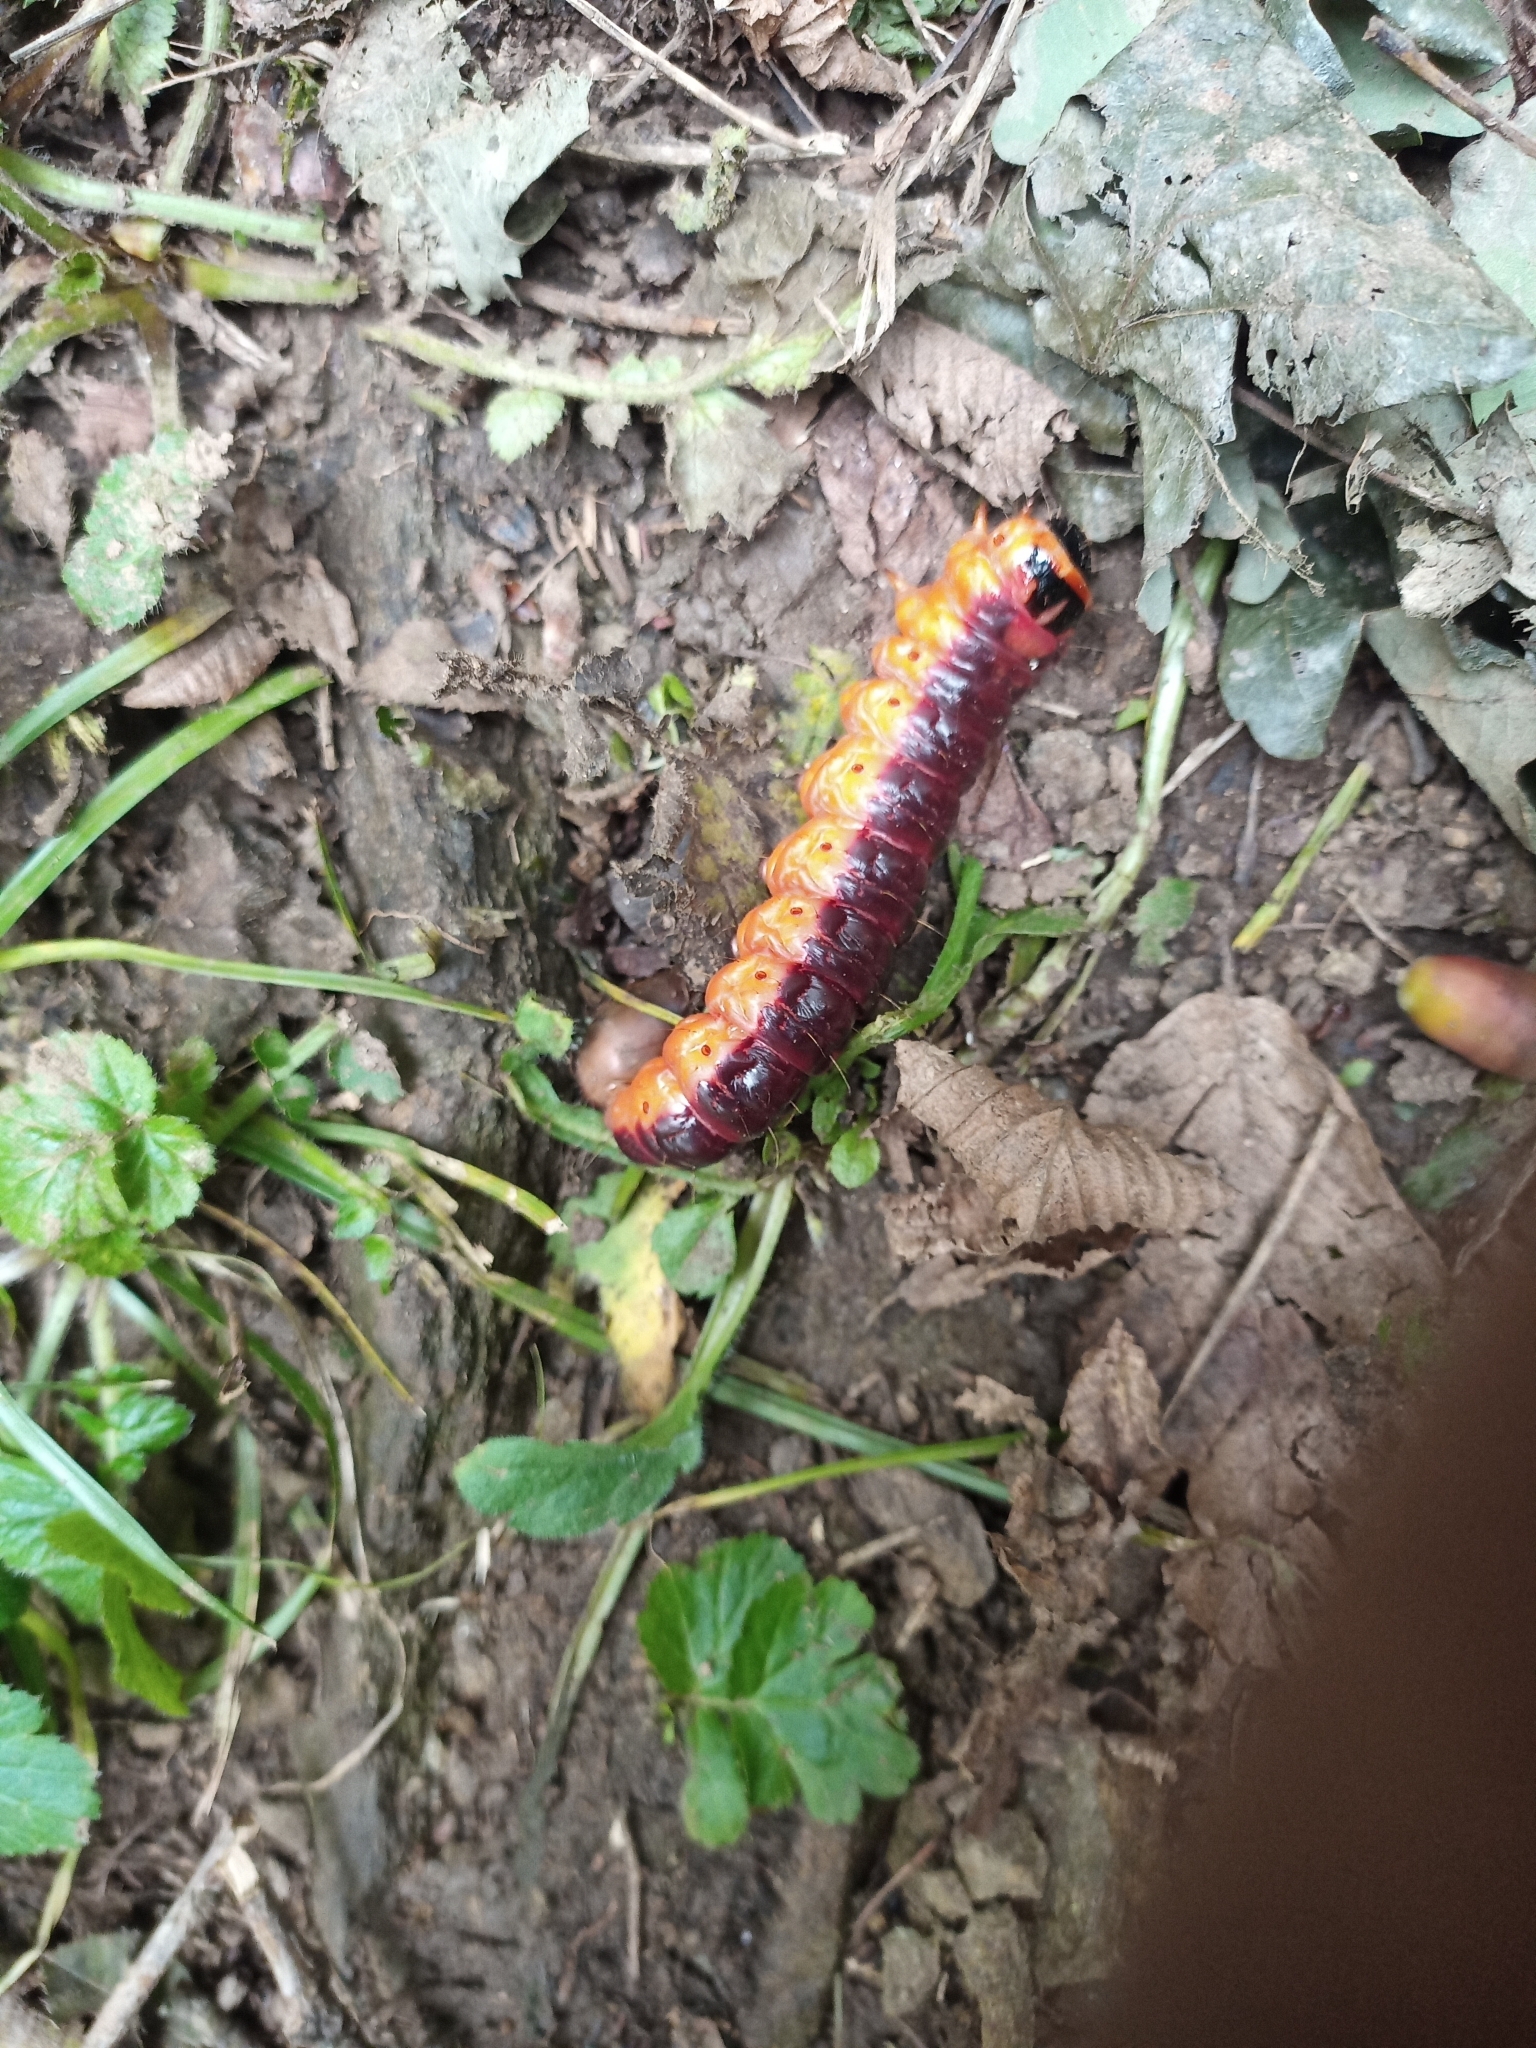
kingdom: Animalia
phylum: Arthropoda
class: Insecta
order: Lepidoptera
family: Cossidae
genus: Cossus
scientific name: Cossus cossus
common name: Goat moth
